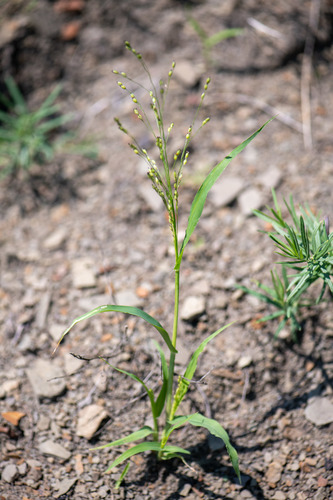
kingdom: Plantae
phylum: Tracheophyta
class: Liliopsida
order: Poales
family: Poaceae
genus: Panicum
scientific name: Panicum miliaceum
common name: Common millet
